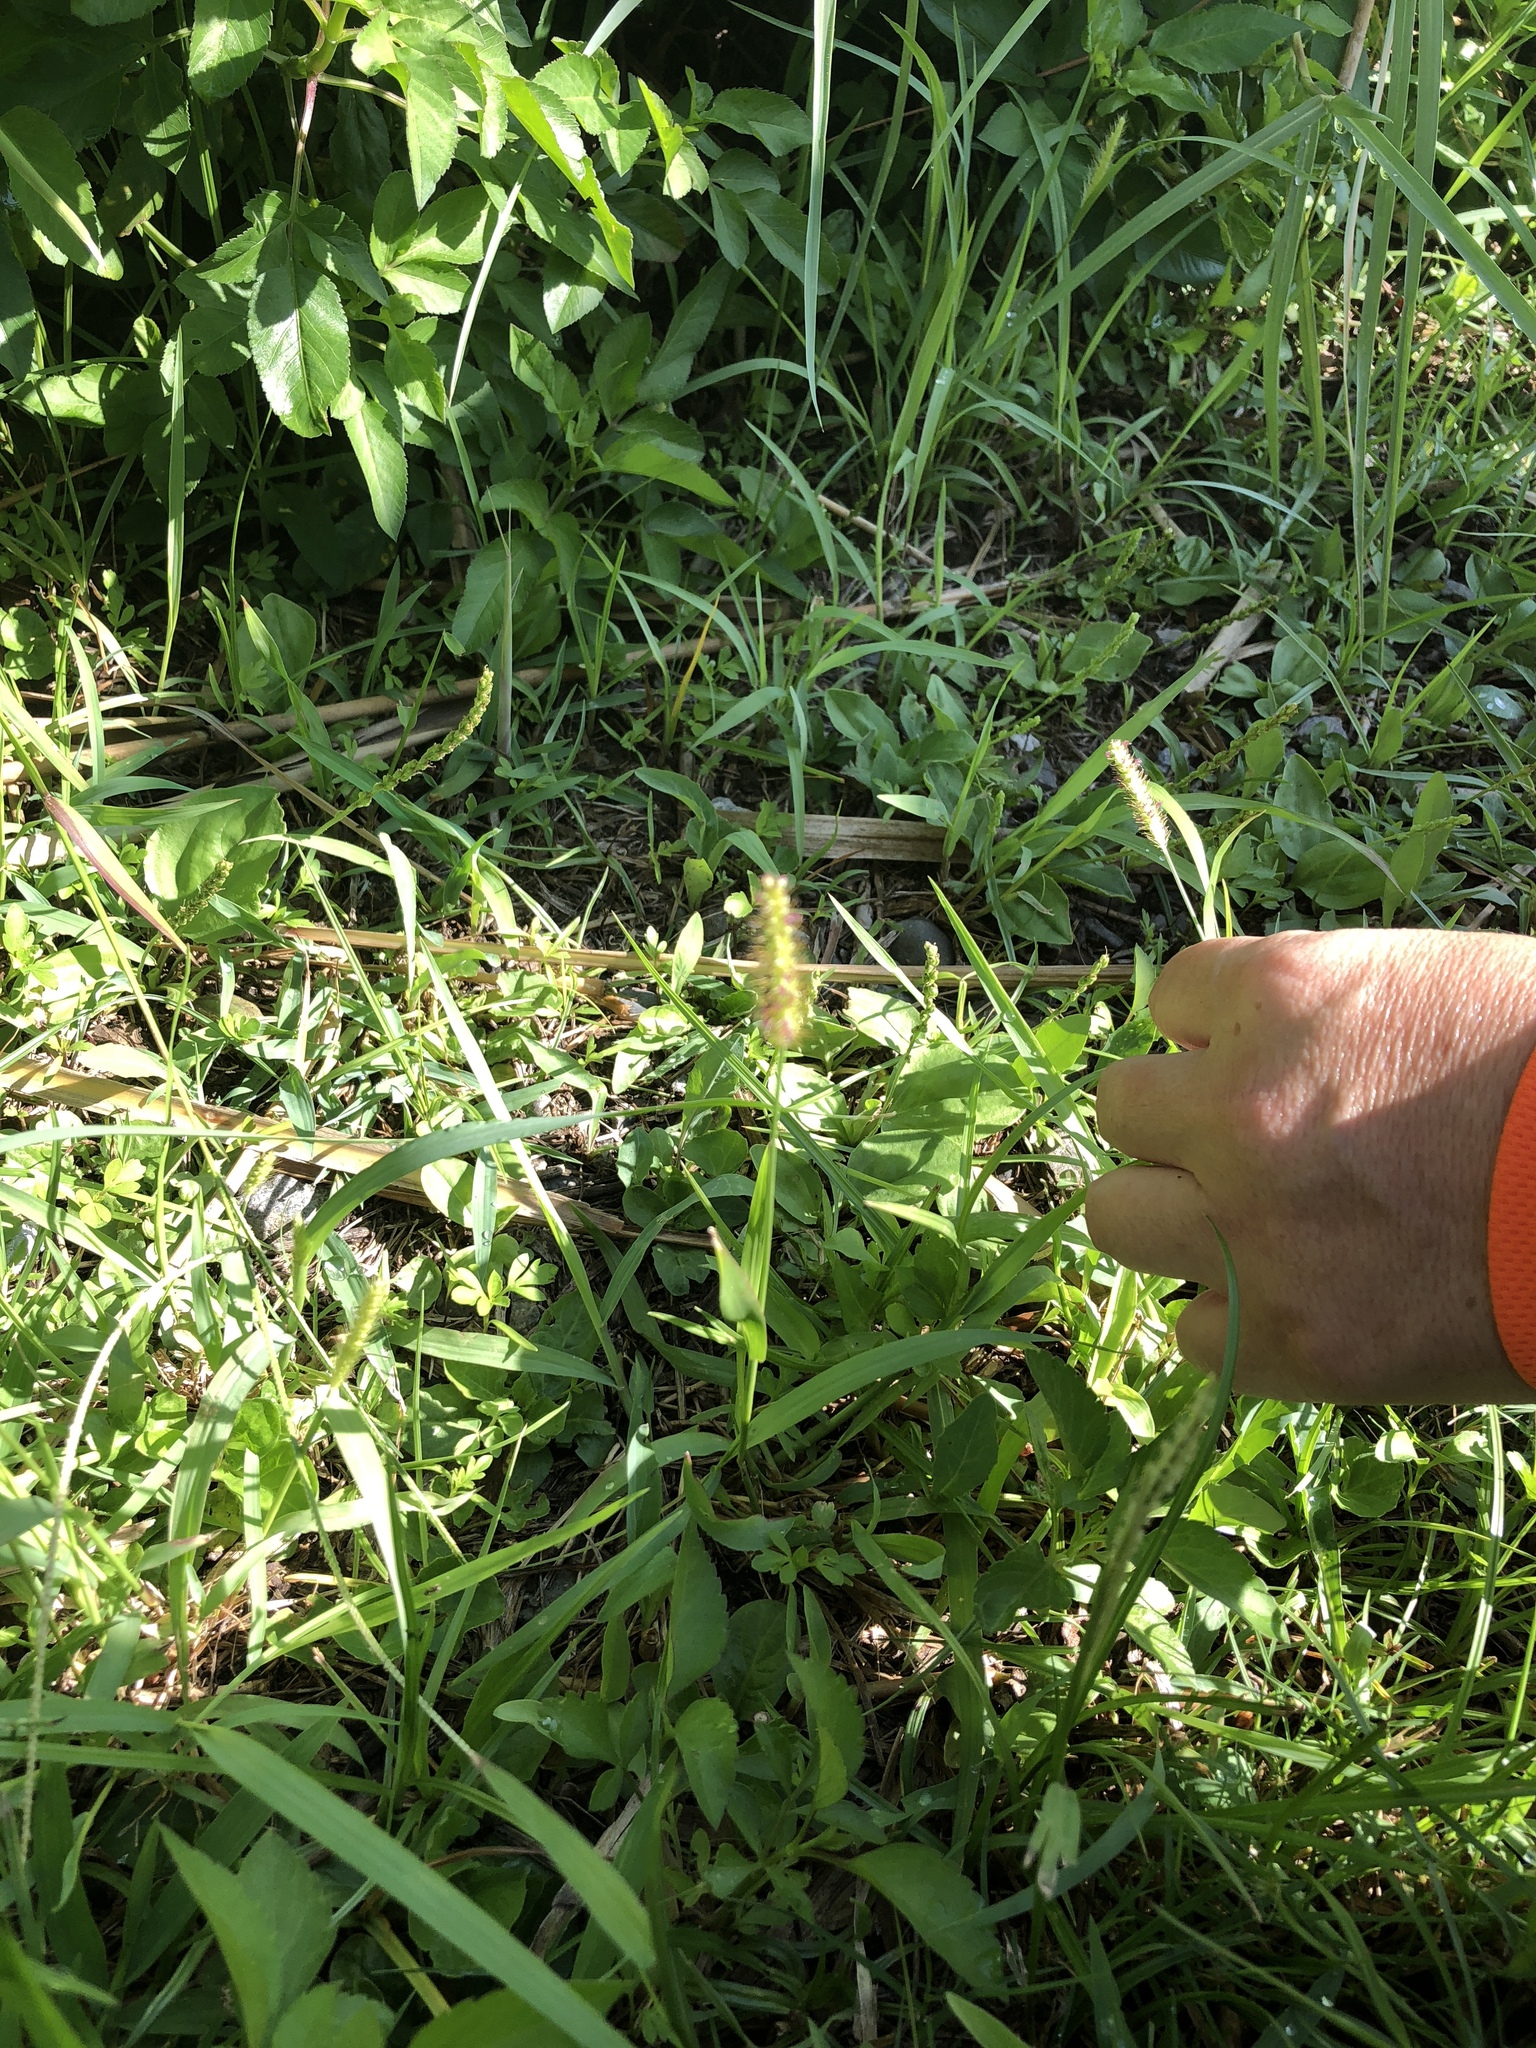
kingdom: Plantae
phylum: Tracheophyta
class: Liliopsida
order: Poales
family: Poaceae
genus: Setaria
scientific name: Setaria parviflora
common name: Knotroot bristle-grass
